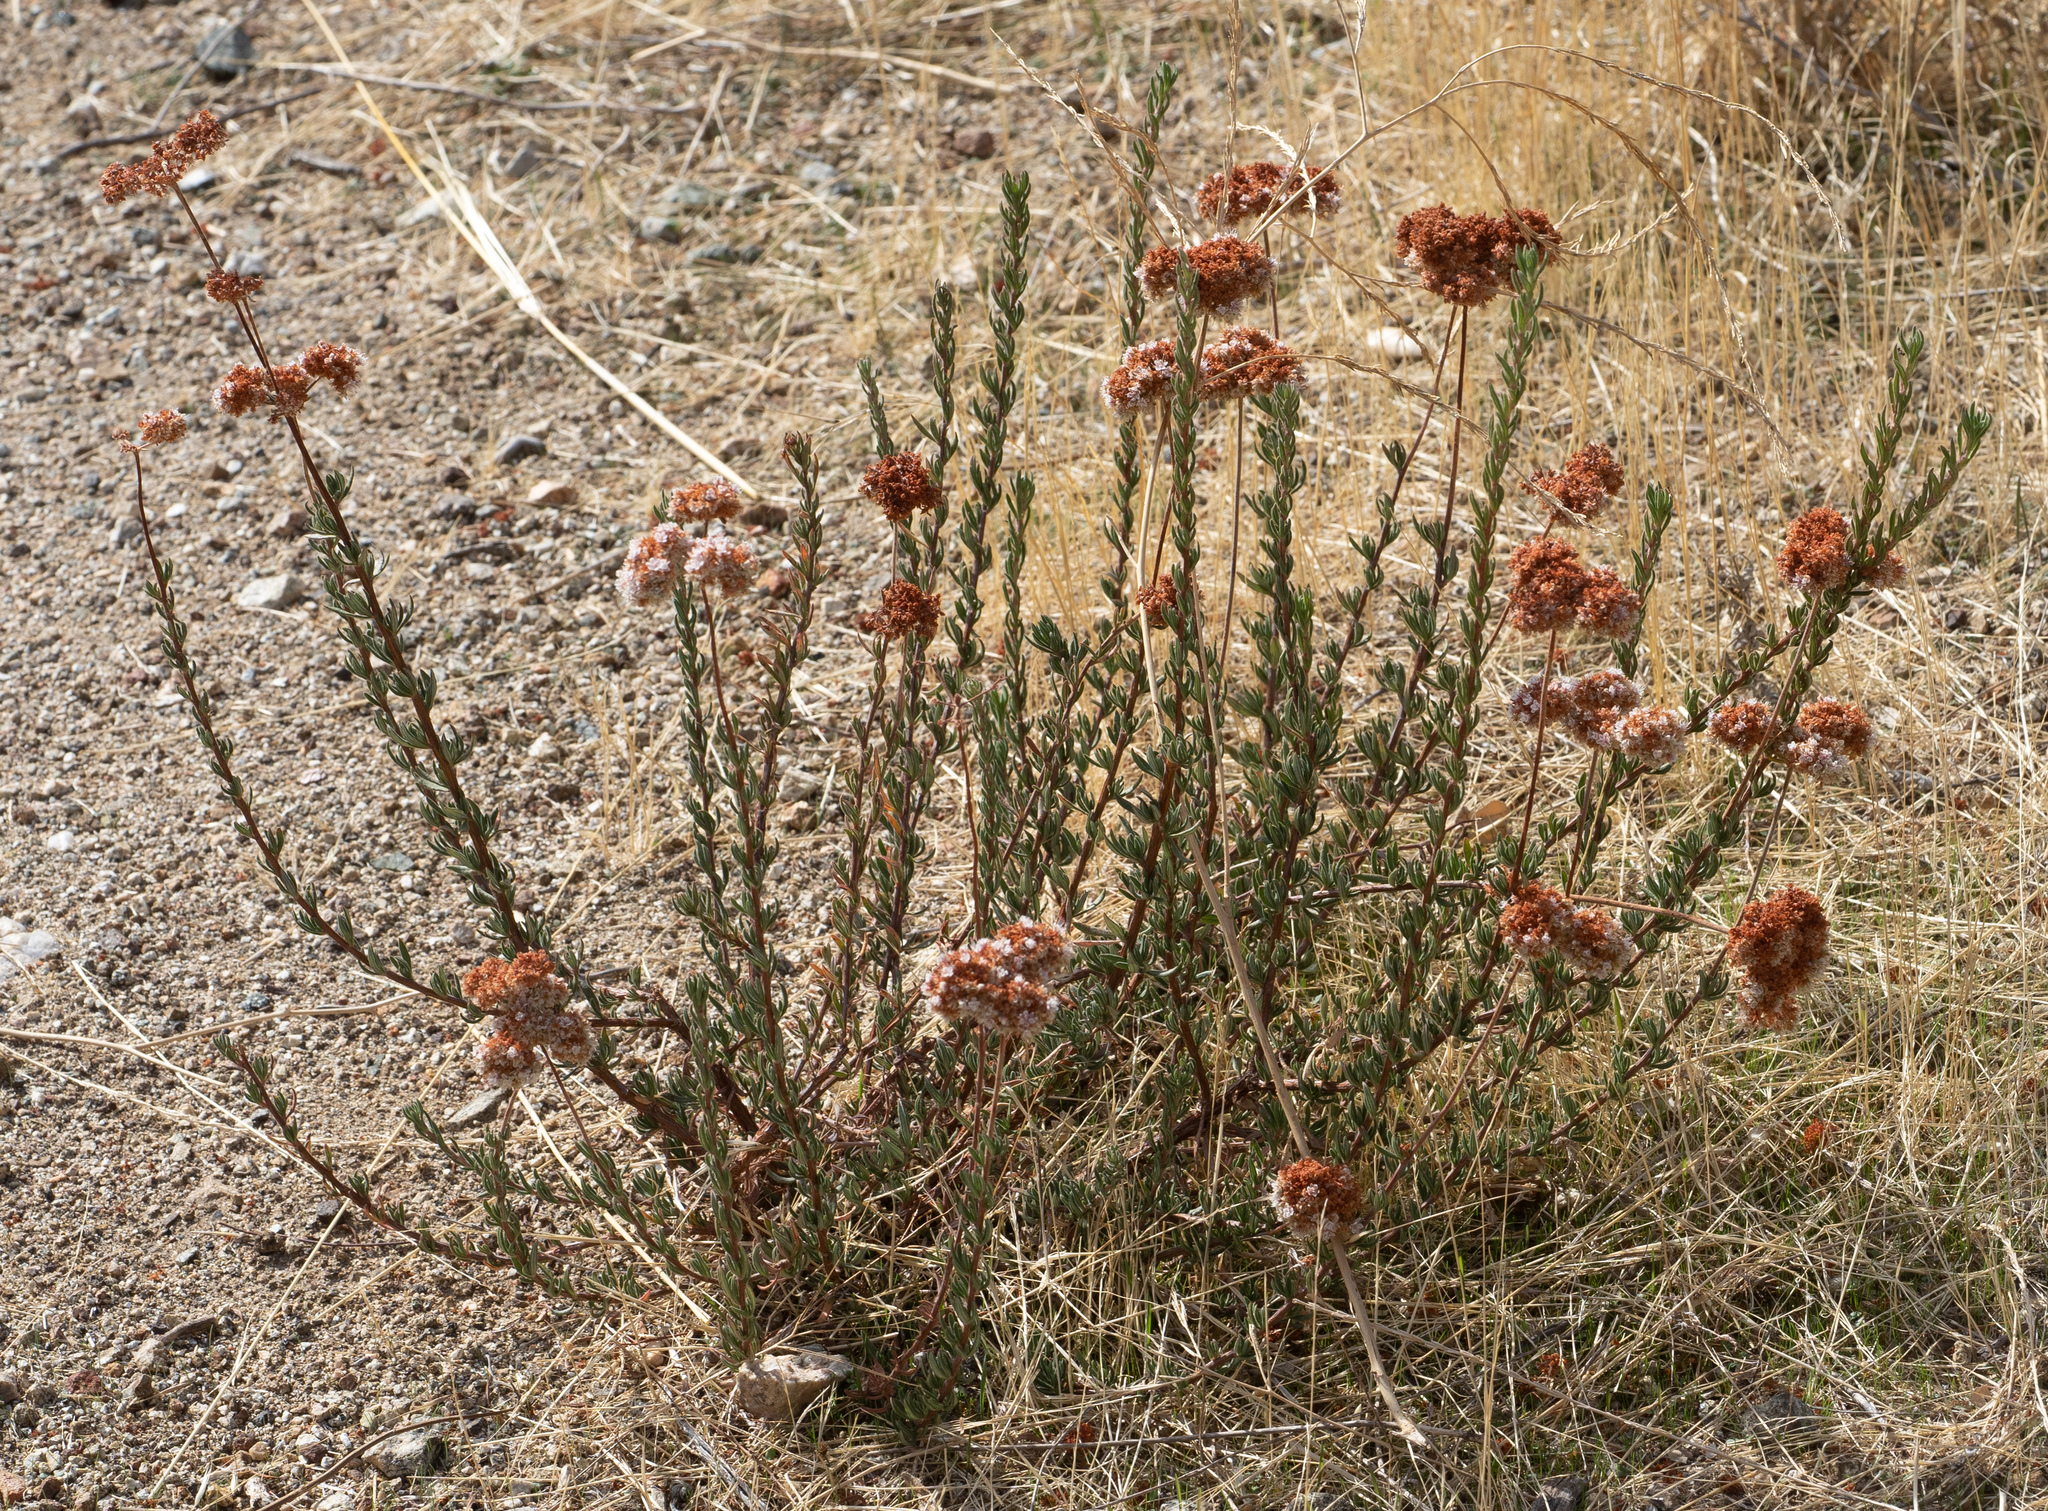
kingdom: Plantae
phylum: Tracheophyta
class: Magnoliopsida
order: Caryophyllales
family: Polygonaceae
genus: Eriogonum
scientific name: Eriogonum fasciculatum
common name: California wild buckwheat
